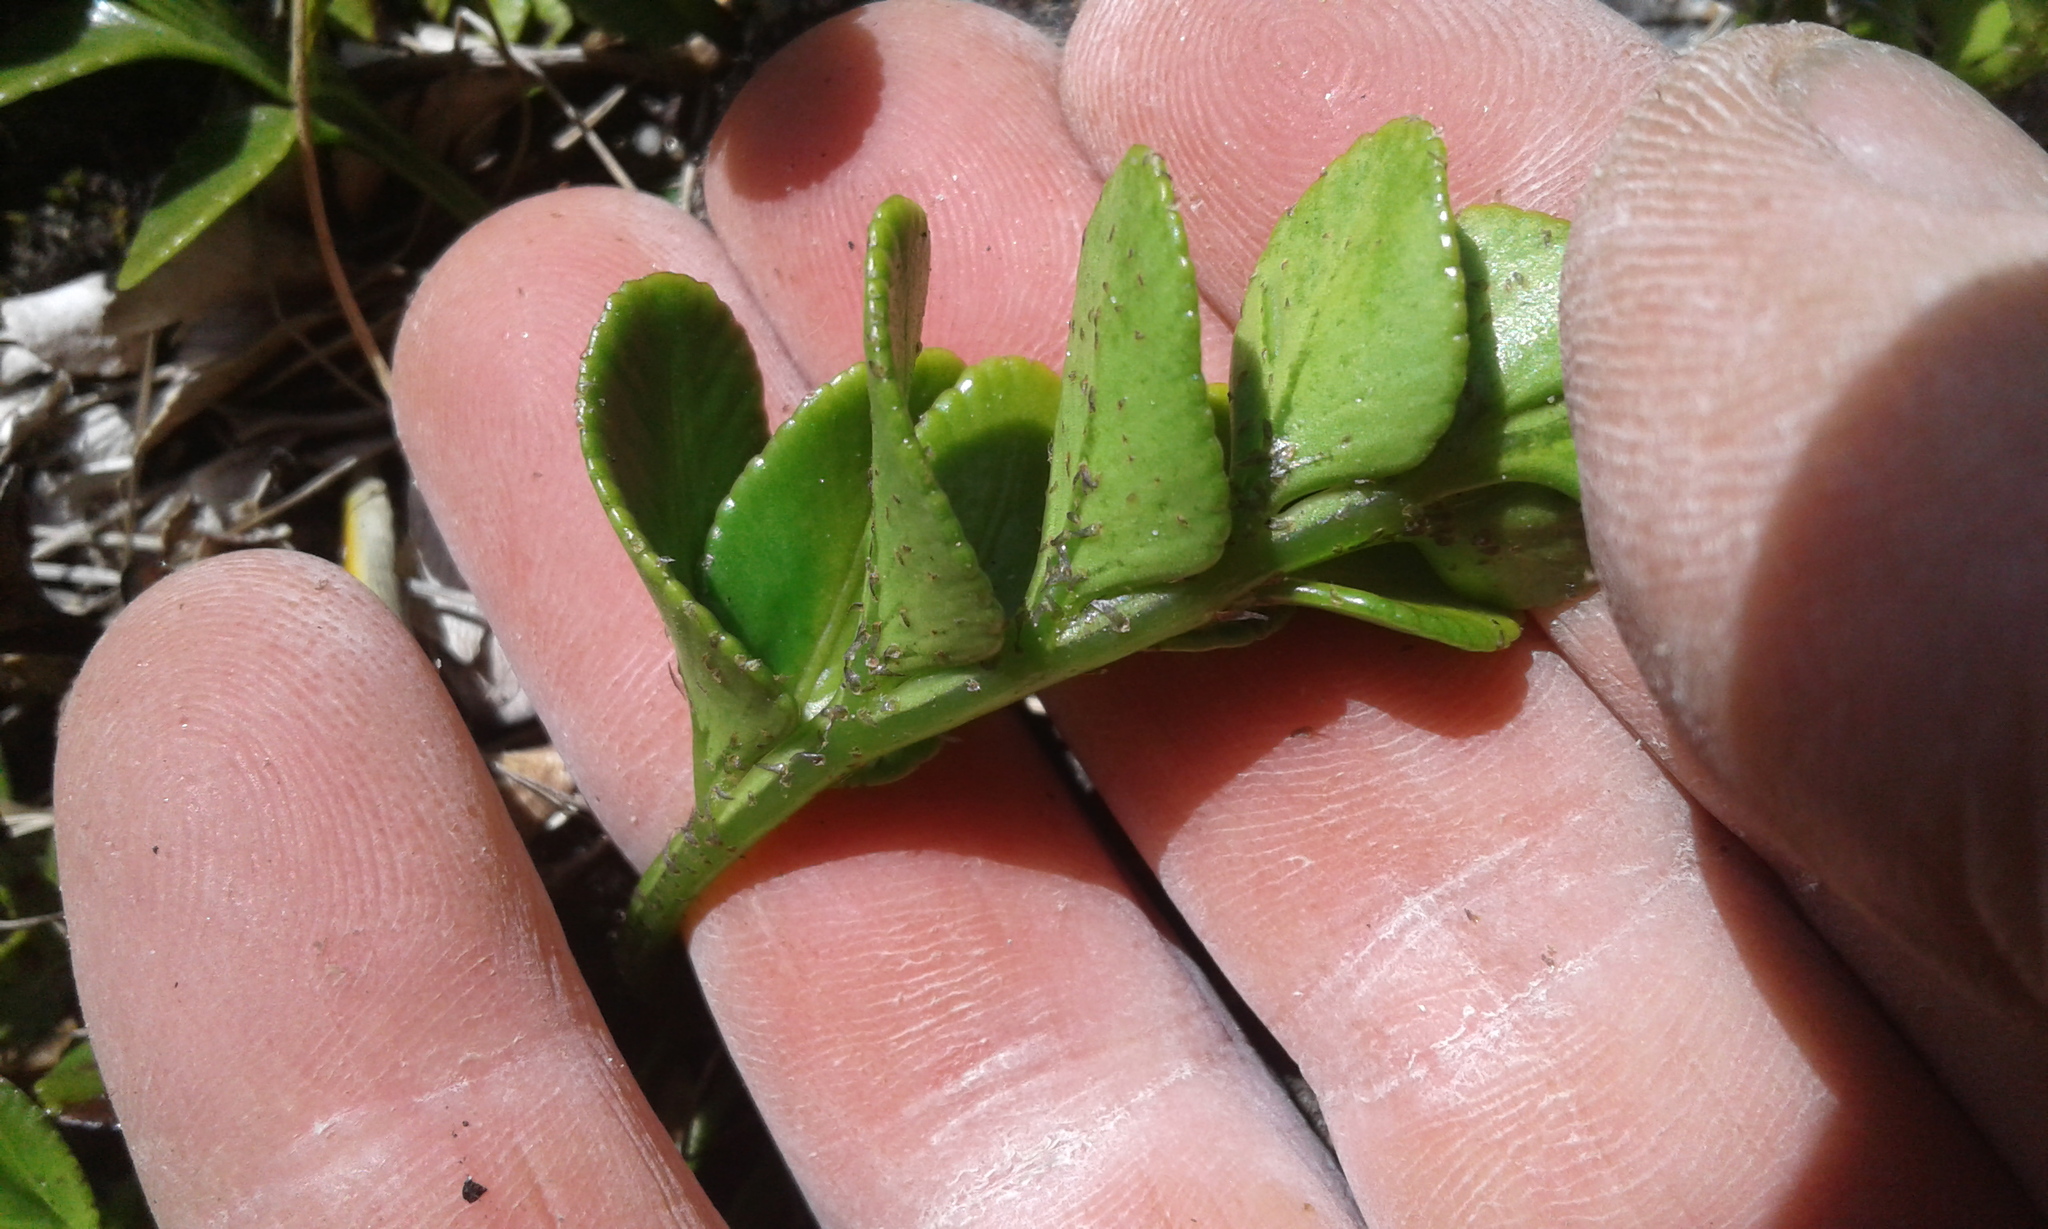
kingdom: Plantae
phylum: Tracheophyta
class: Polypodiopsida
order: Polypodiales
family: Aspleniaceae
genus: Asplenium
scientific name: Asplenium obtusatum
